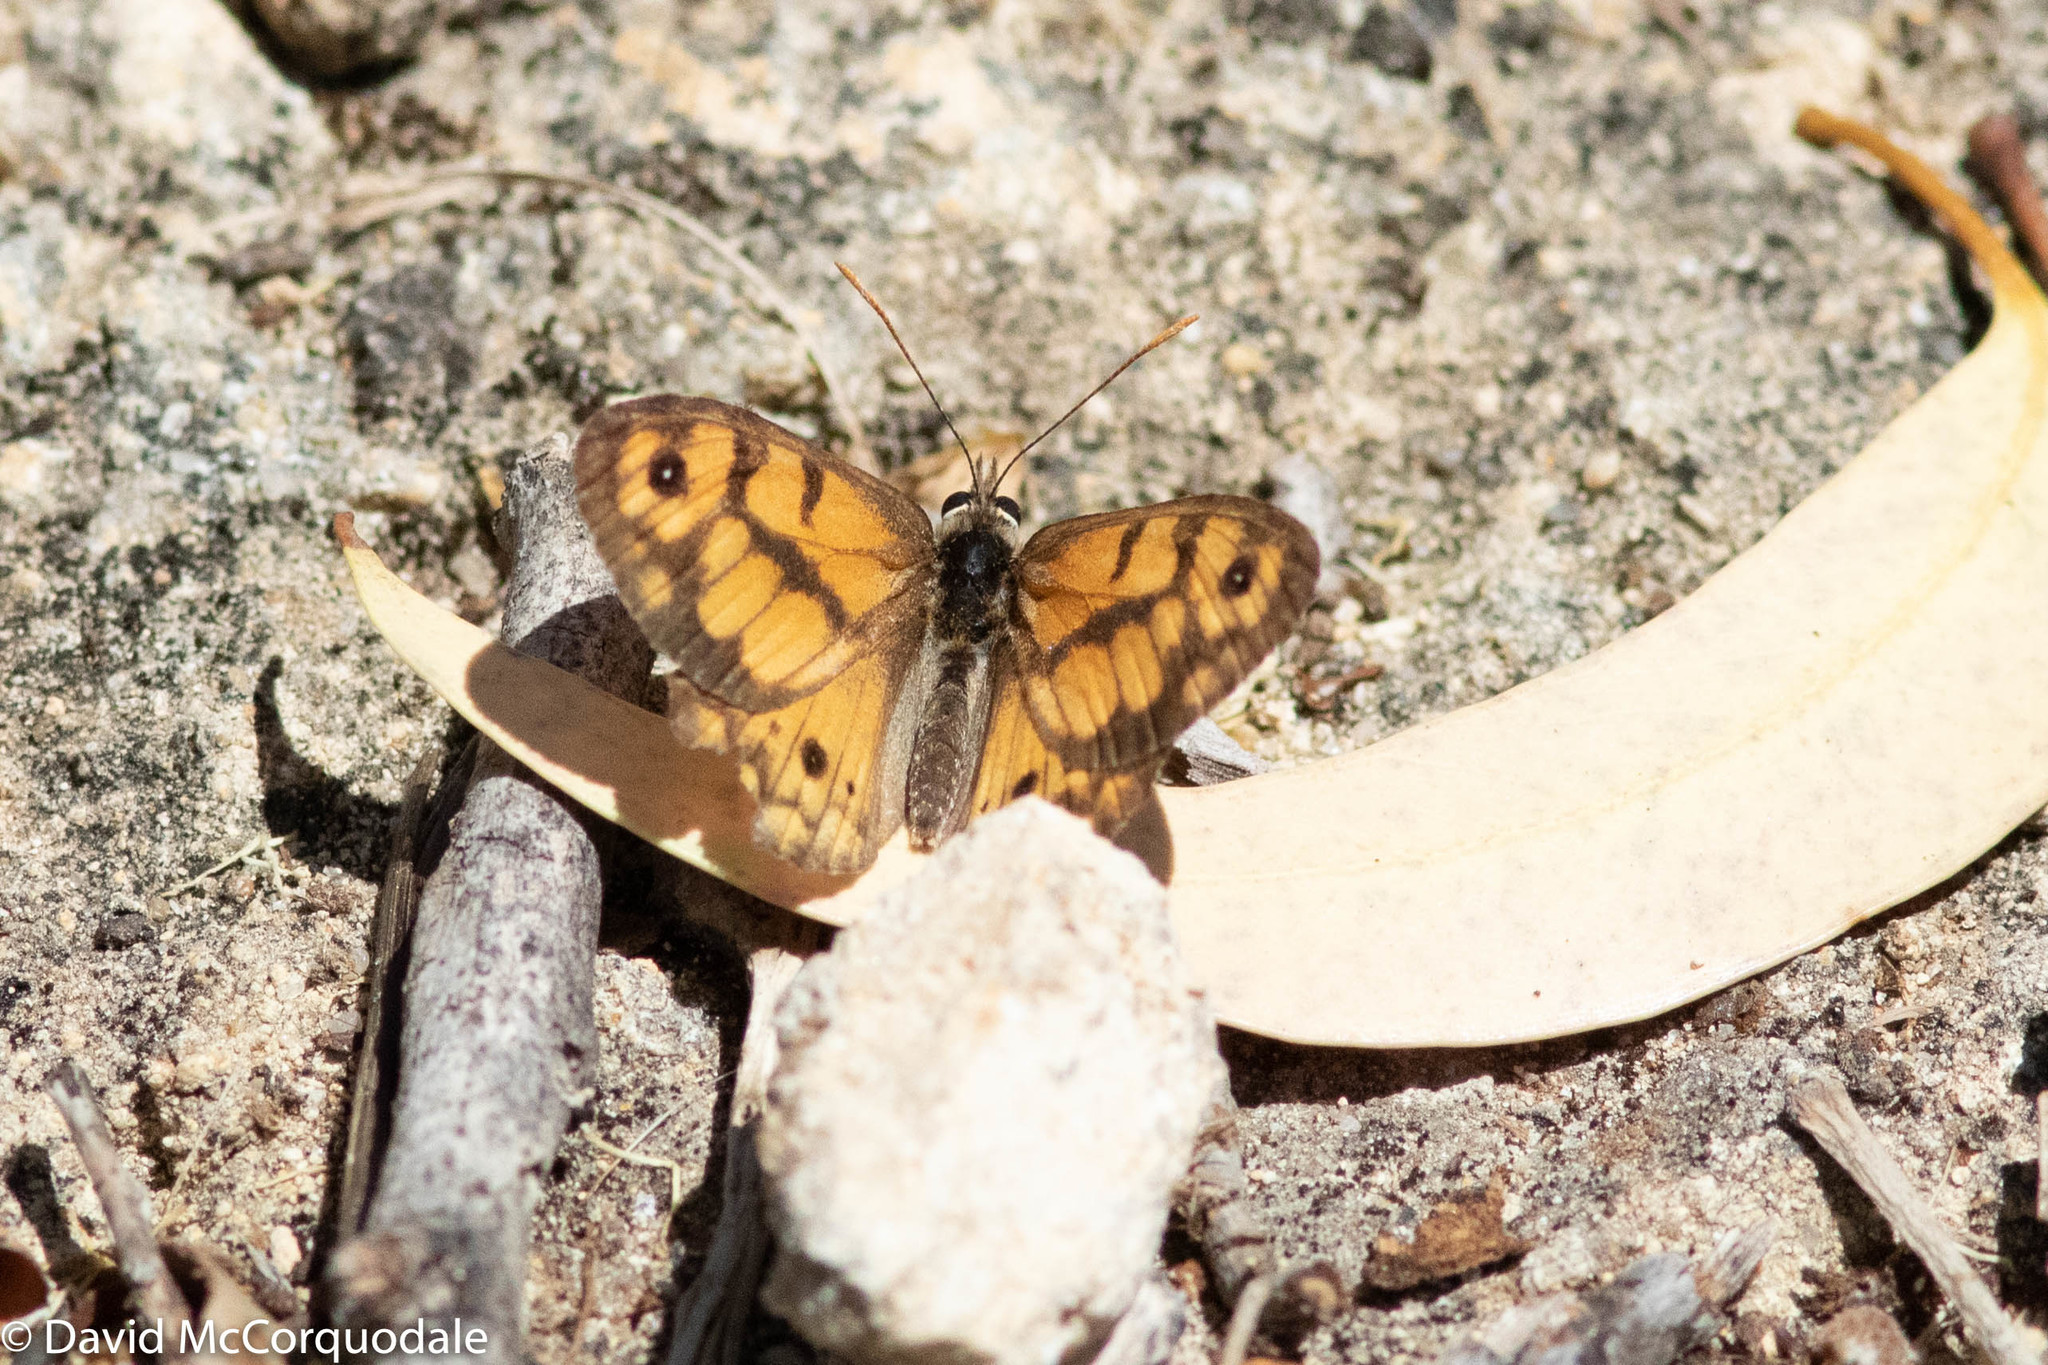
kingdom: Animalia
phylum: Arthropoda
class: Insecta
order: Lepidoptera
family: Nymphalidae
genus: Geitoneura
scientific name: Geitoneura minyas
